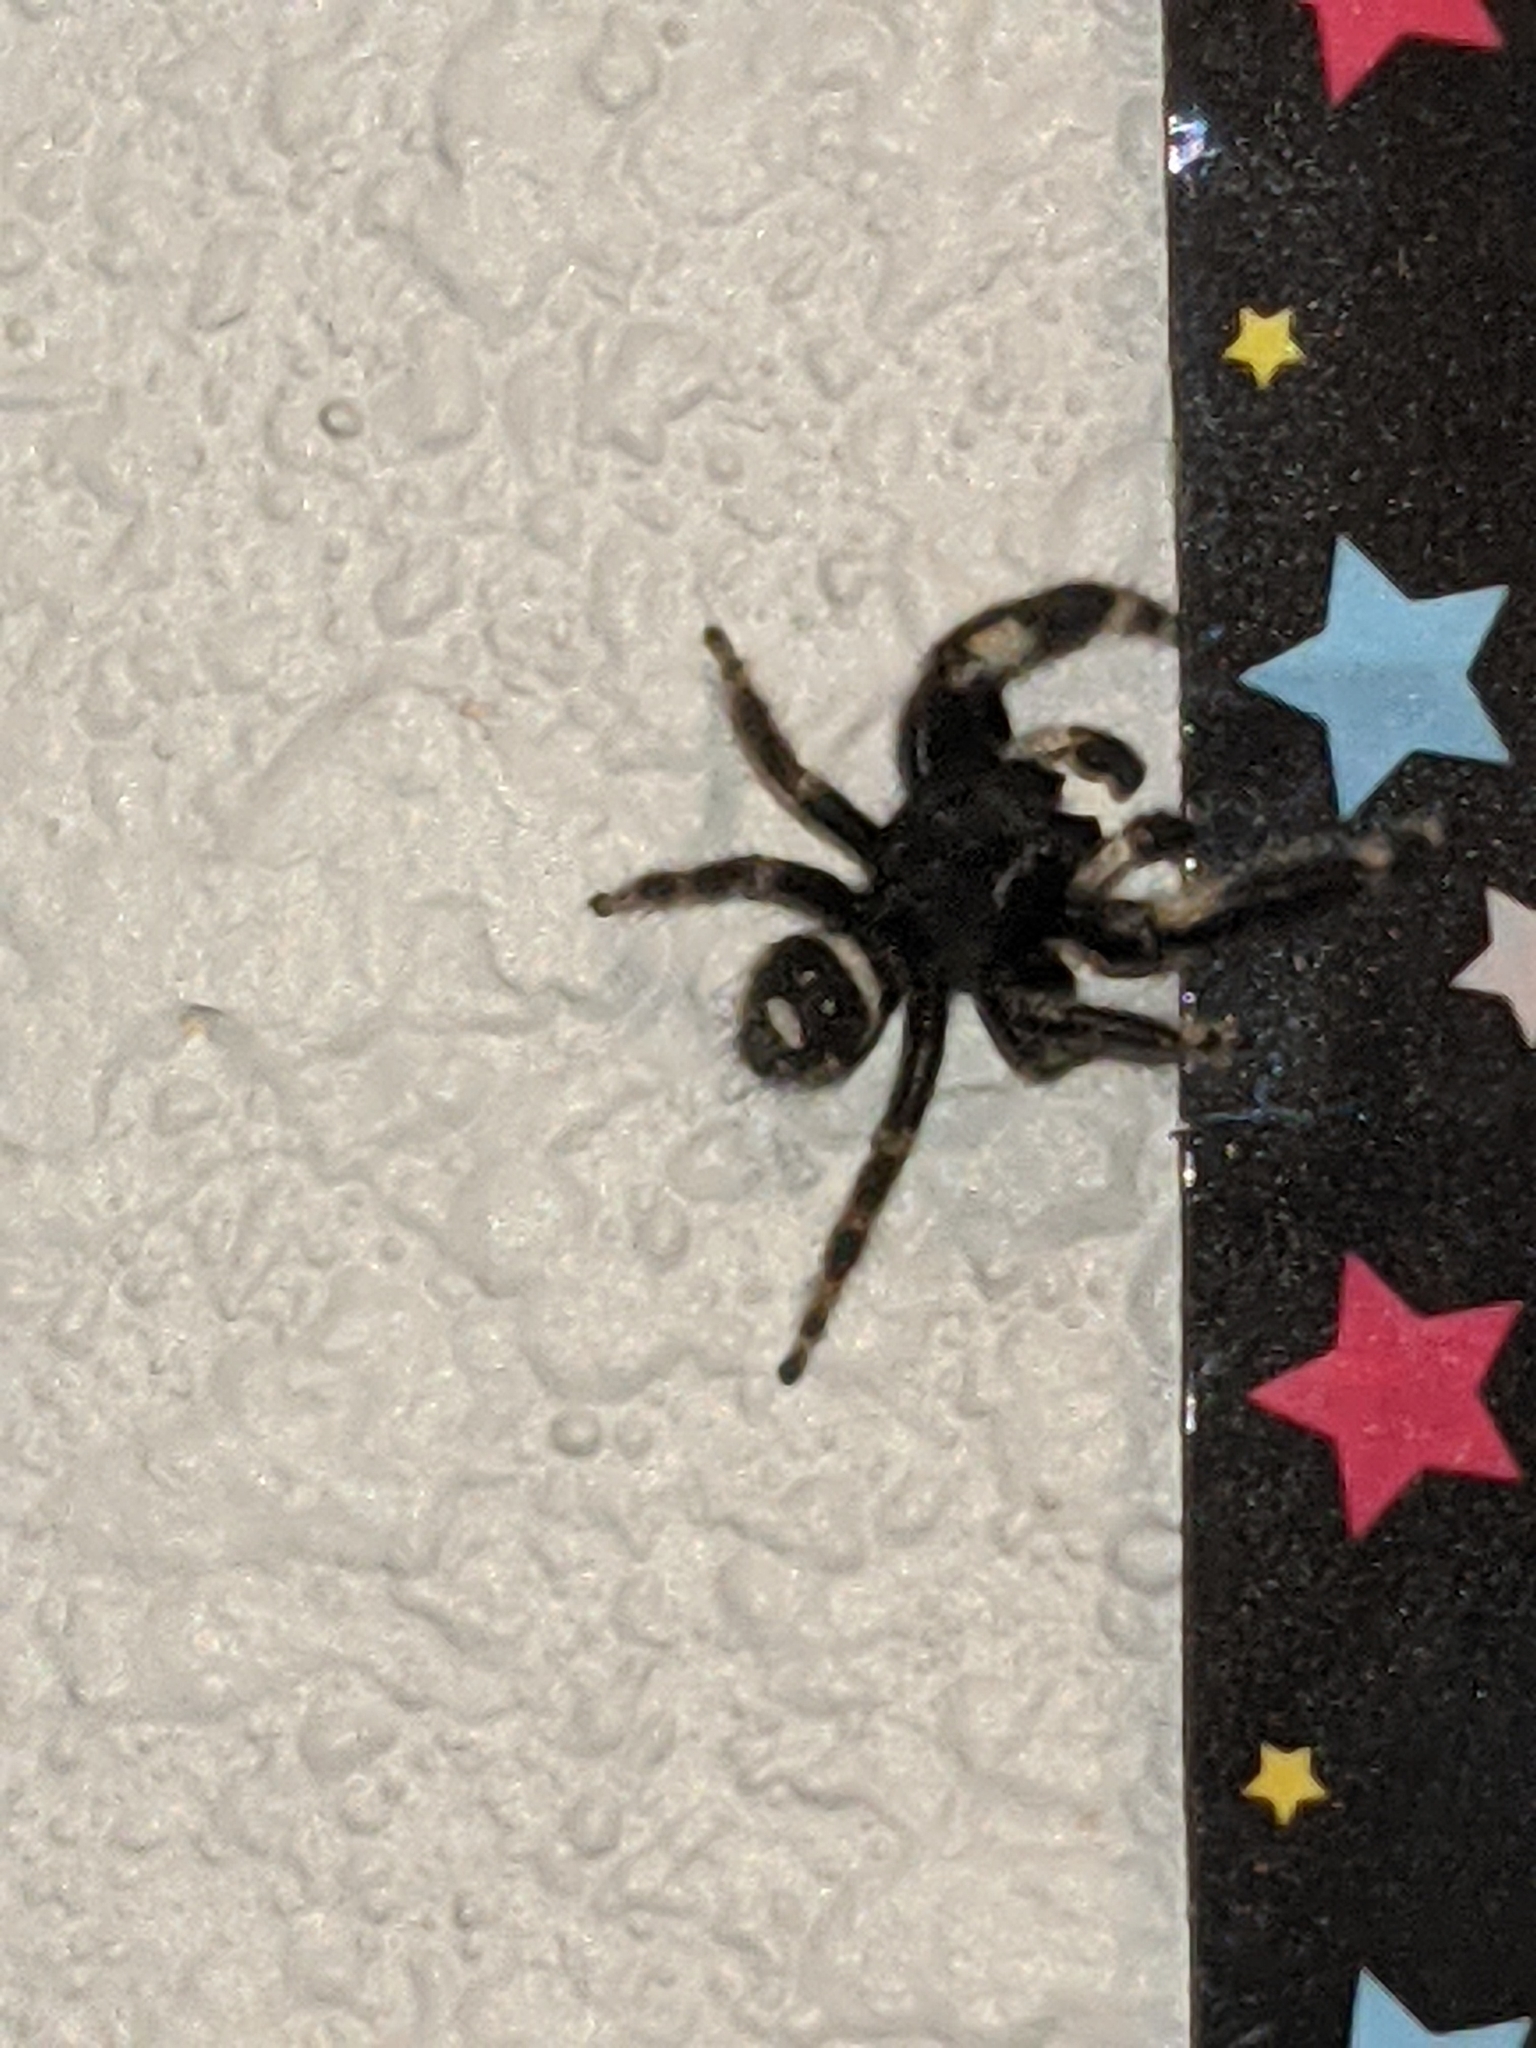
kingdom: Animalia
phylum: Arthropoda
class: Arachnida
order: Araneae
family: Salticidae
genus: Phidippus
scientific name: Phidippus audax
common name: Bold jumper
